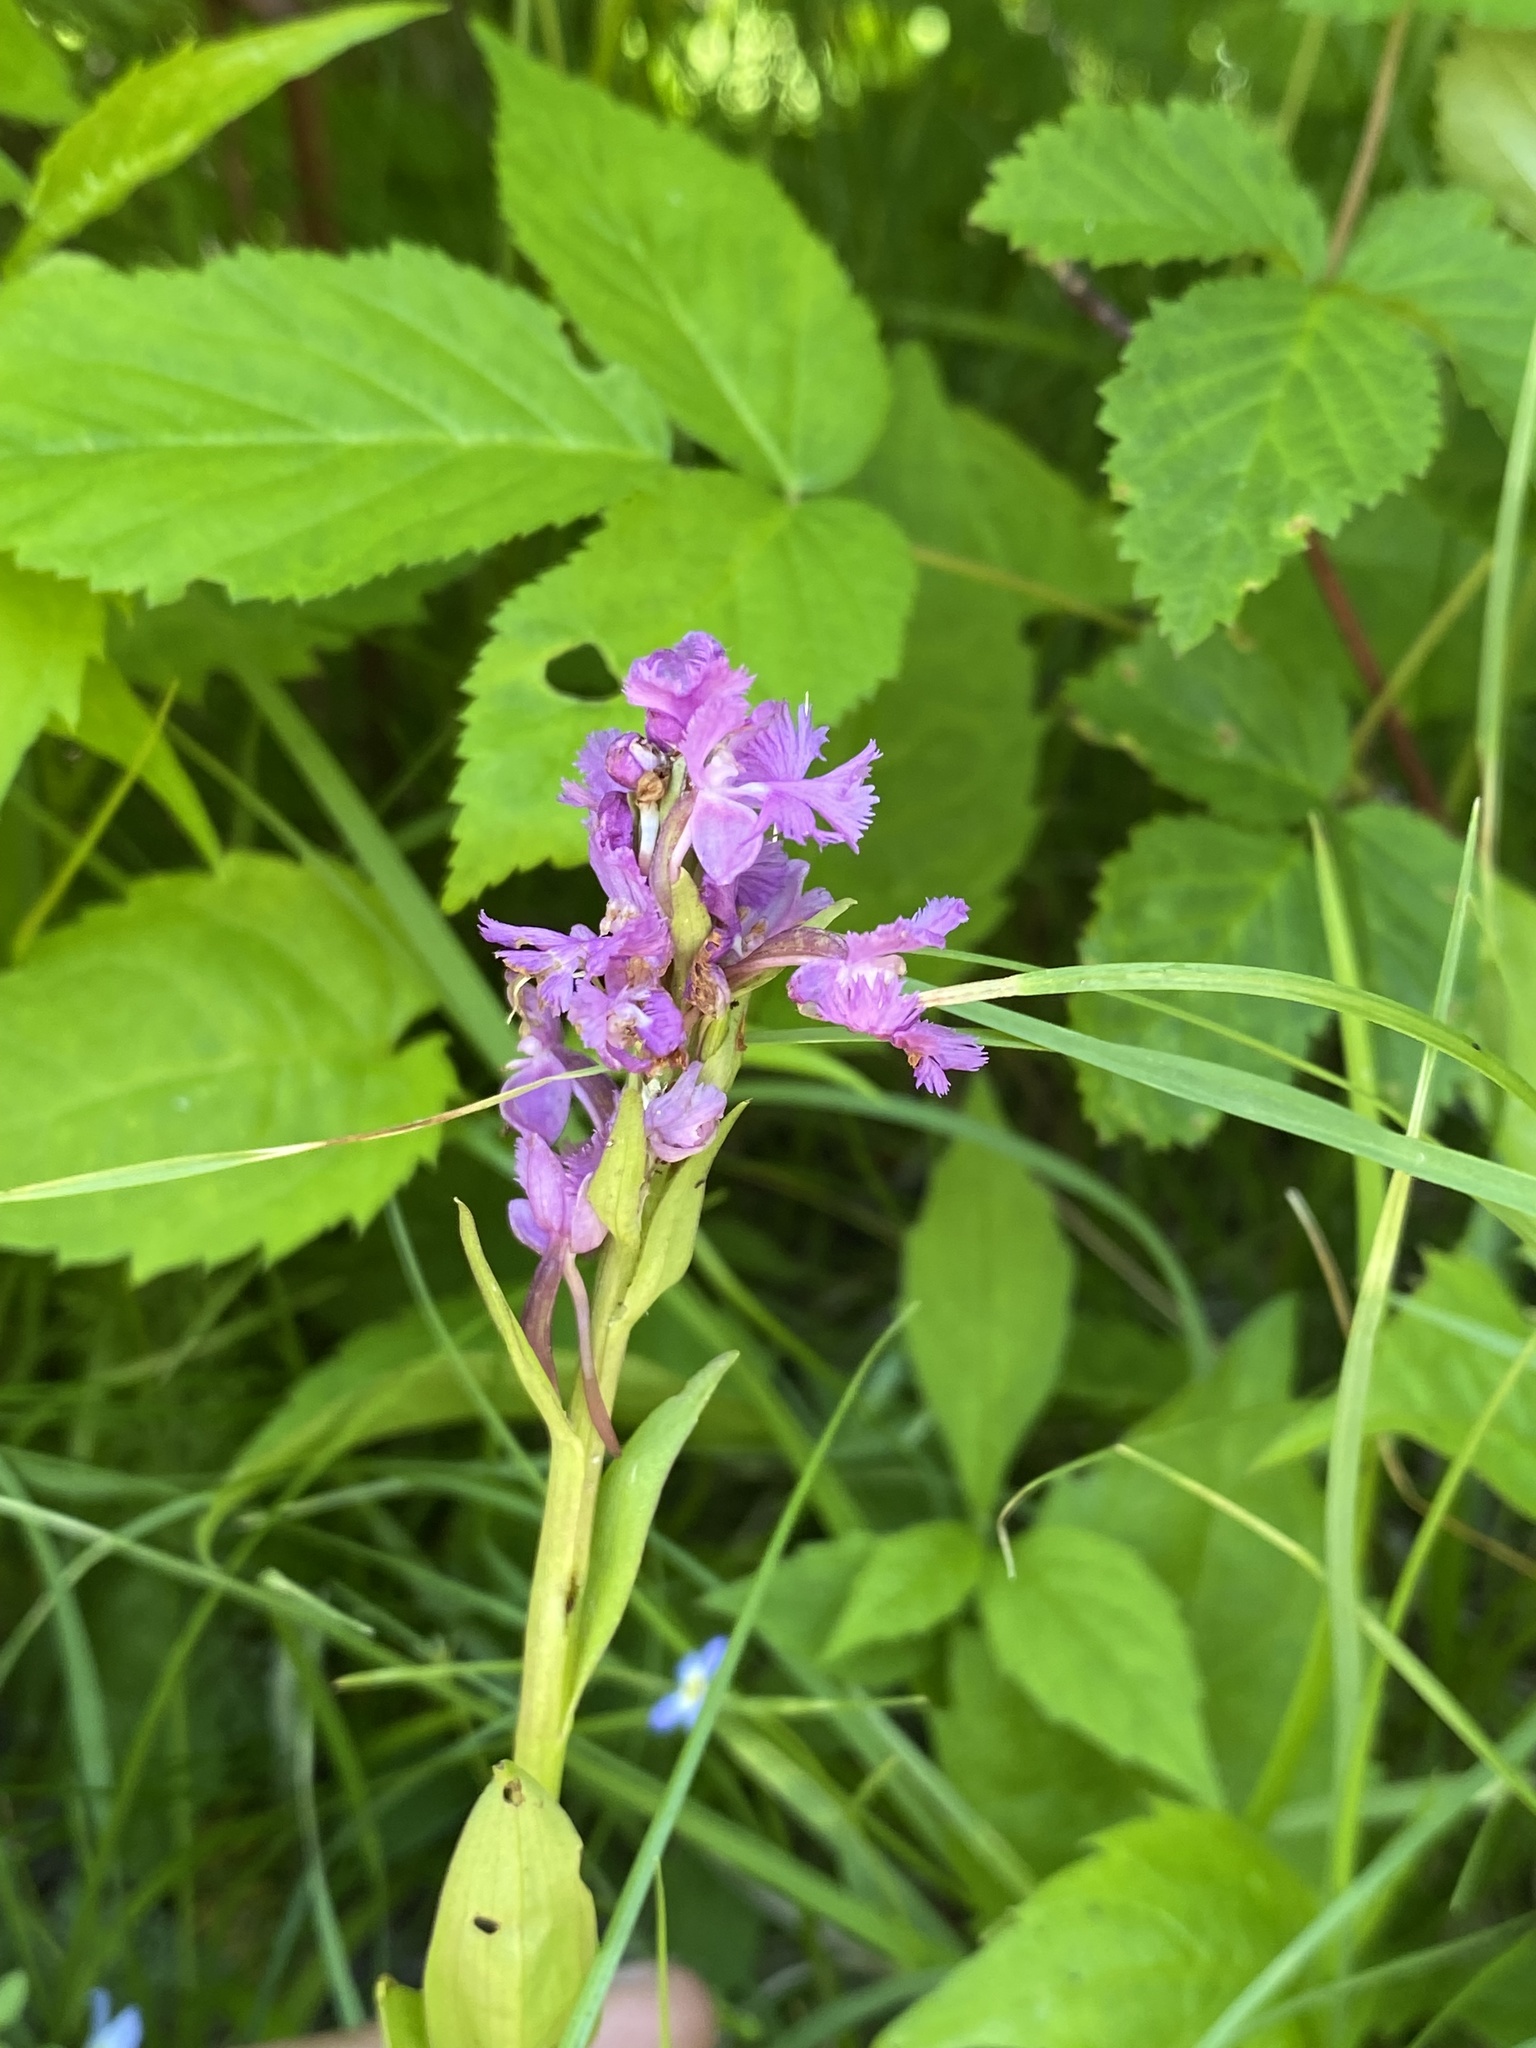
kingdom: Plantae
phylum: Tracheophyta
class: Liliopsida
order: Asparagales
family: Orchidaceae
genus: Platanthera
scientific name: Platanthera psycodes
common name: Lesser purple fringed orchid
